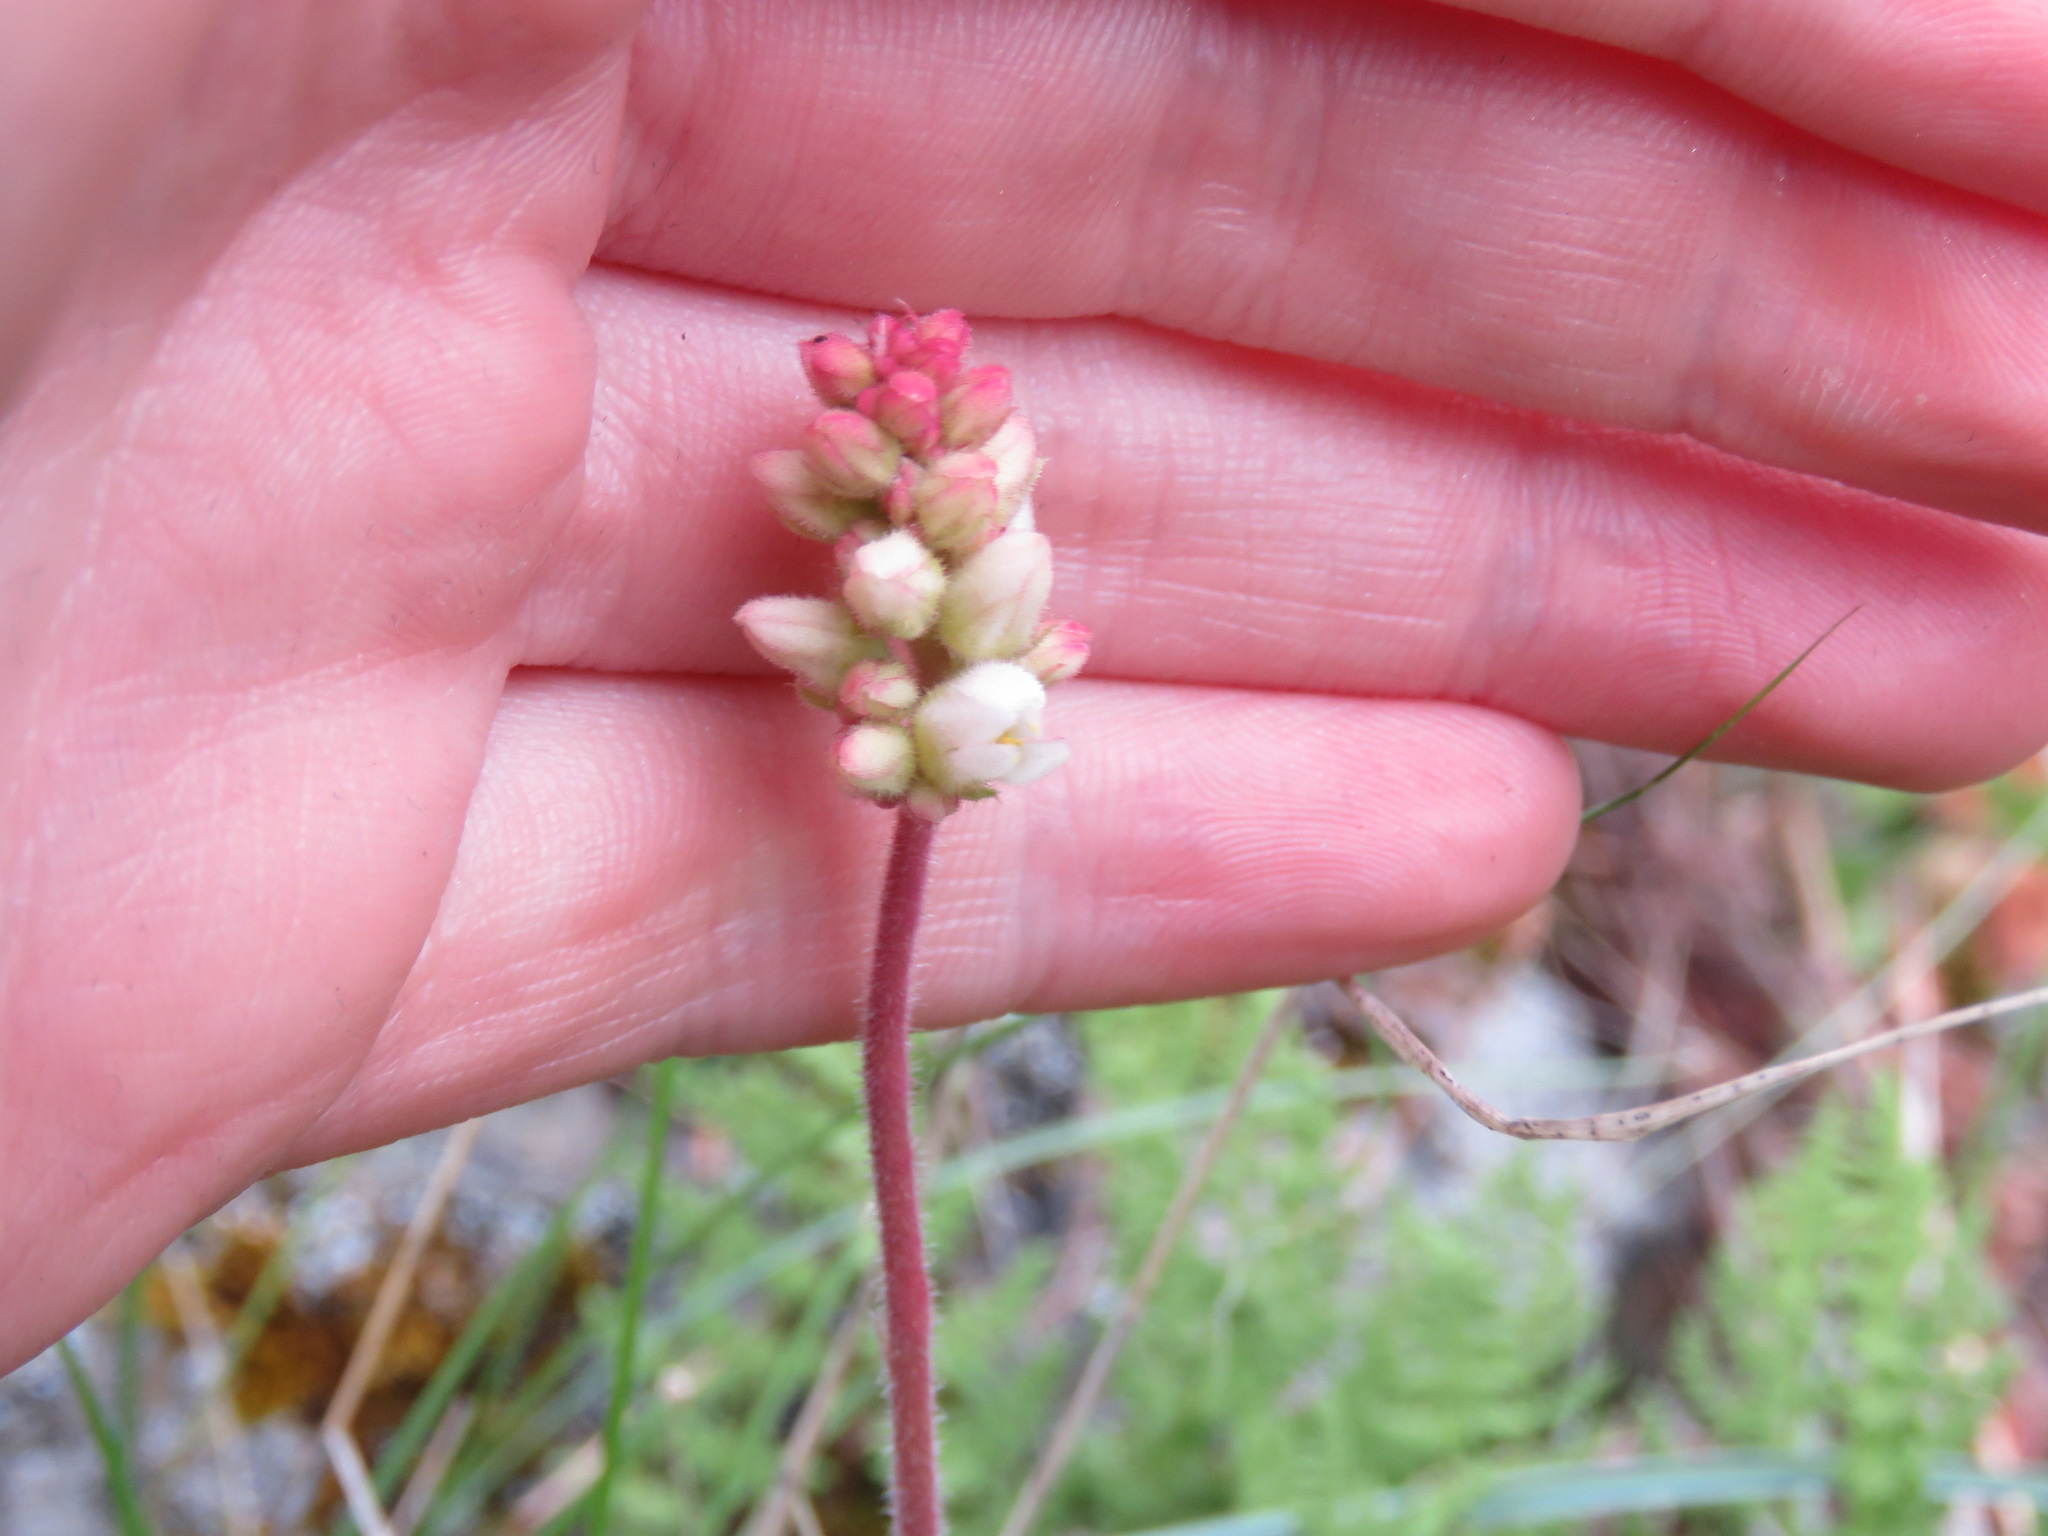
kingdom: Plantae
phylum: Tracheophyta
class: Magnoliopsida
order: Saxifragales
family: Saxifragaceae
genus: Heuchera
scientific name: Heuchera cylindrica
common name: Mat alumroot
